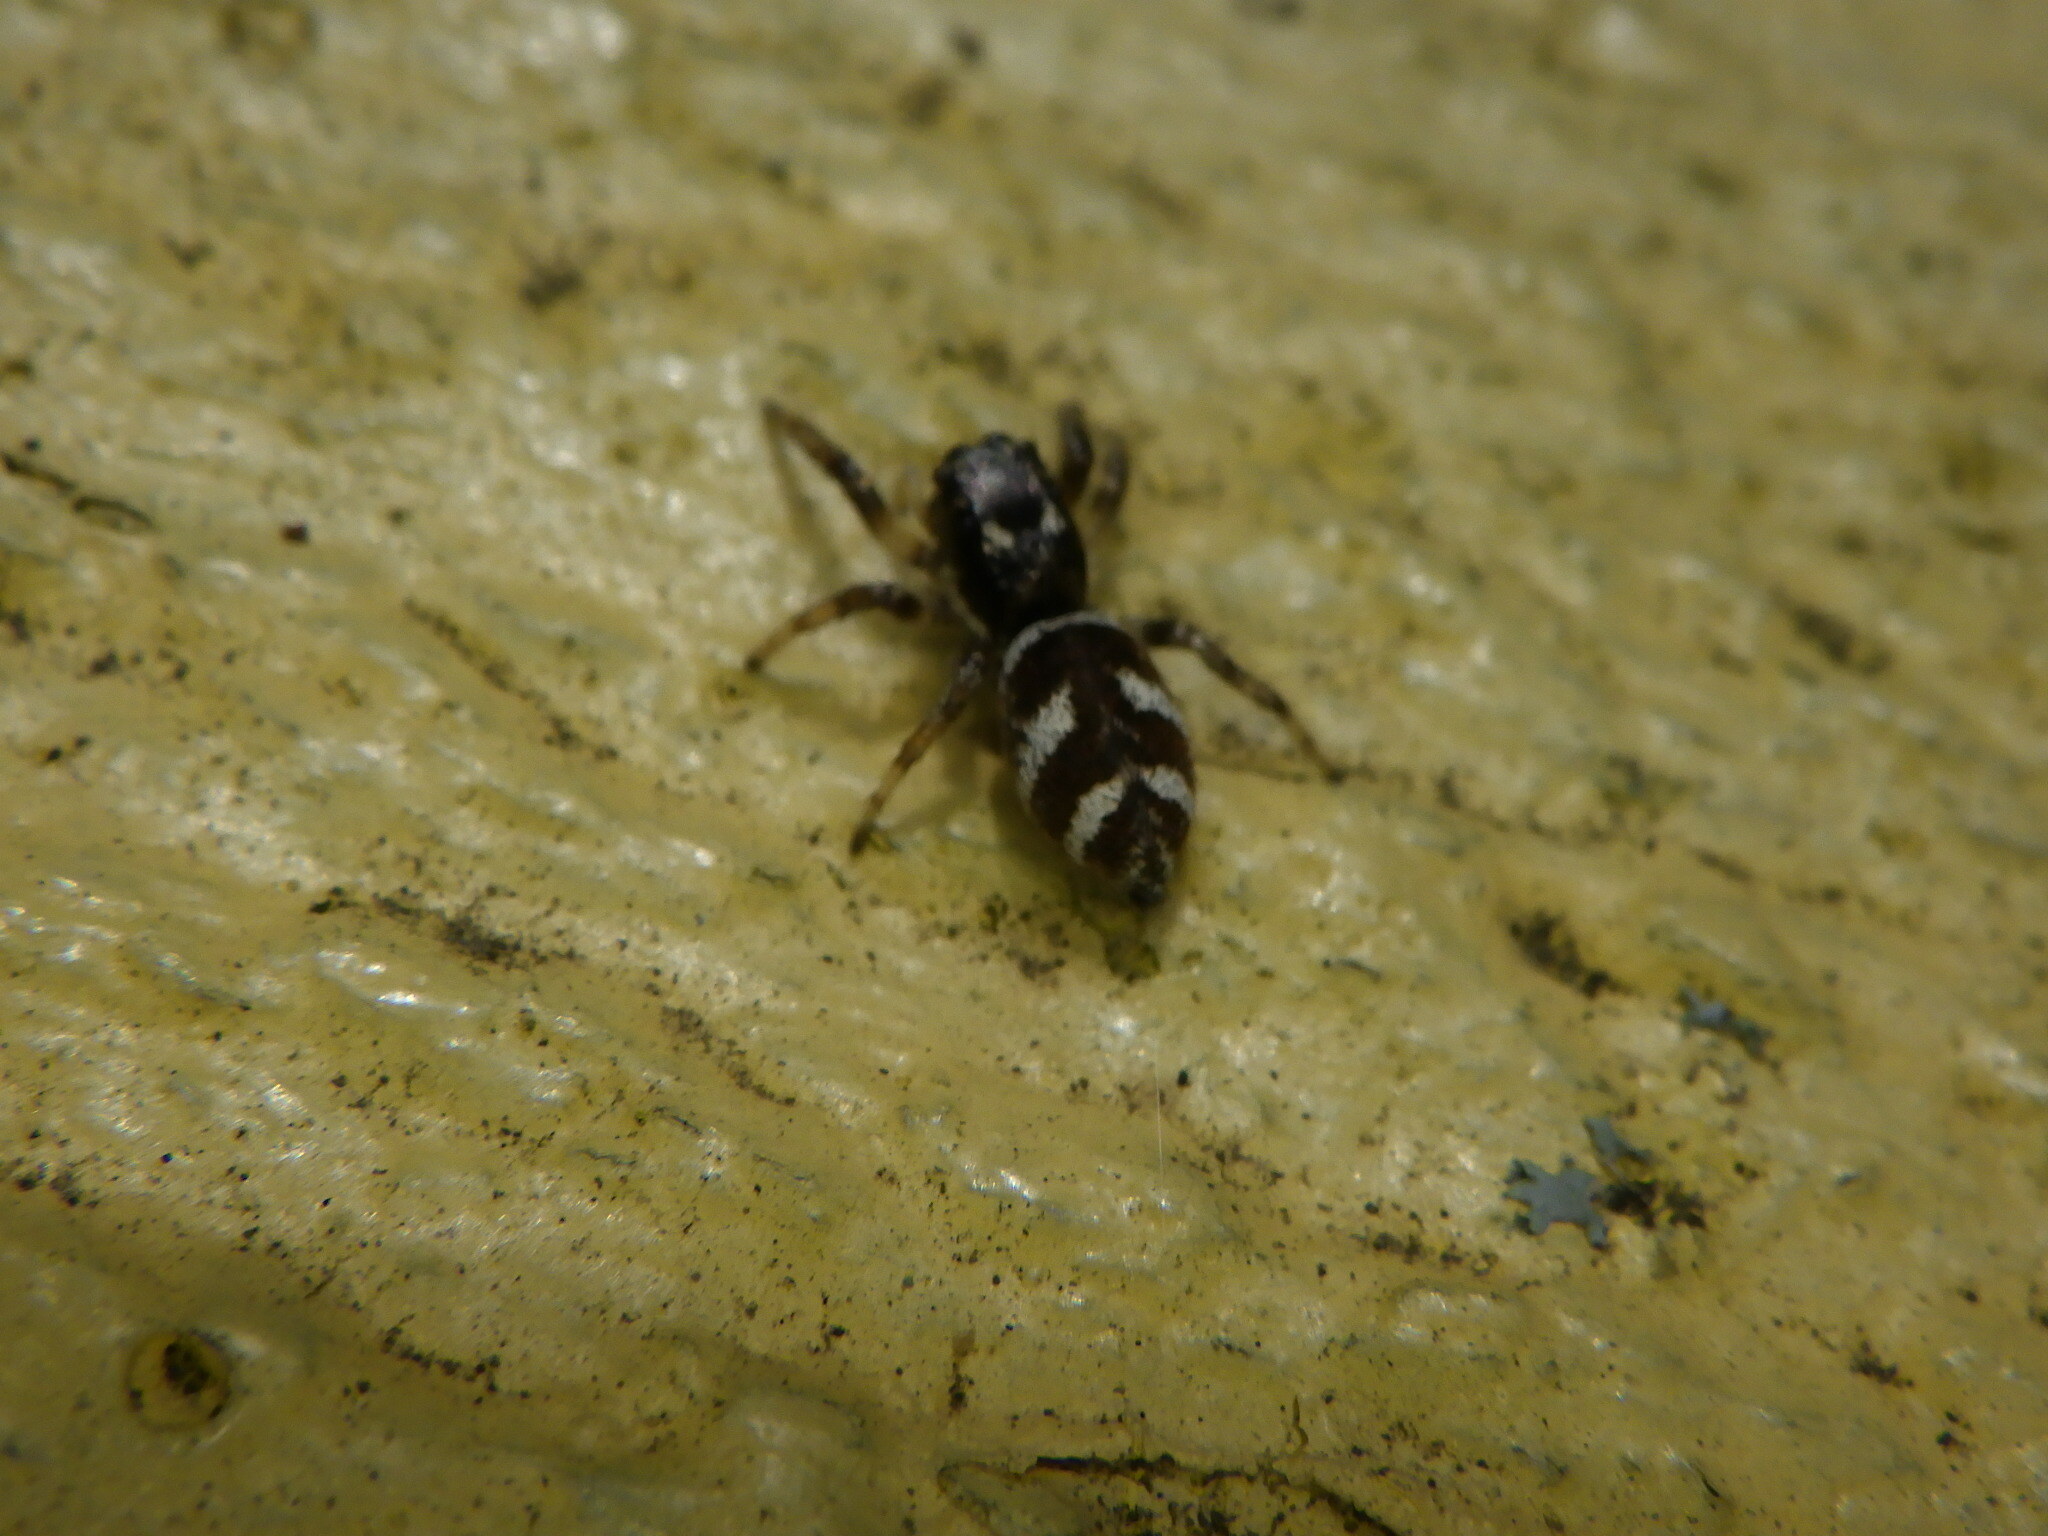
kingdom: Animalia
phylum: Arthropoda
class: Arachnida
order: Araneae
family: Salticidae
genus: Salticus
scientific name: Salticus scenicus
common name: Zebra jumper
